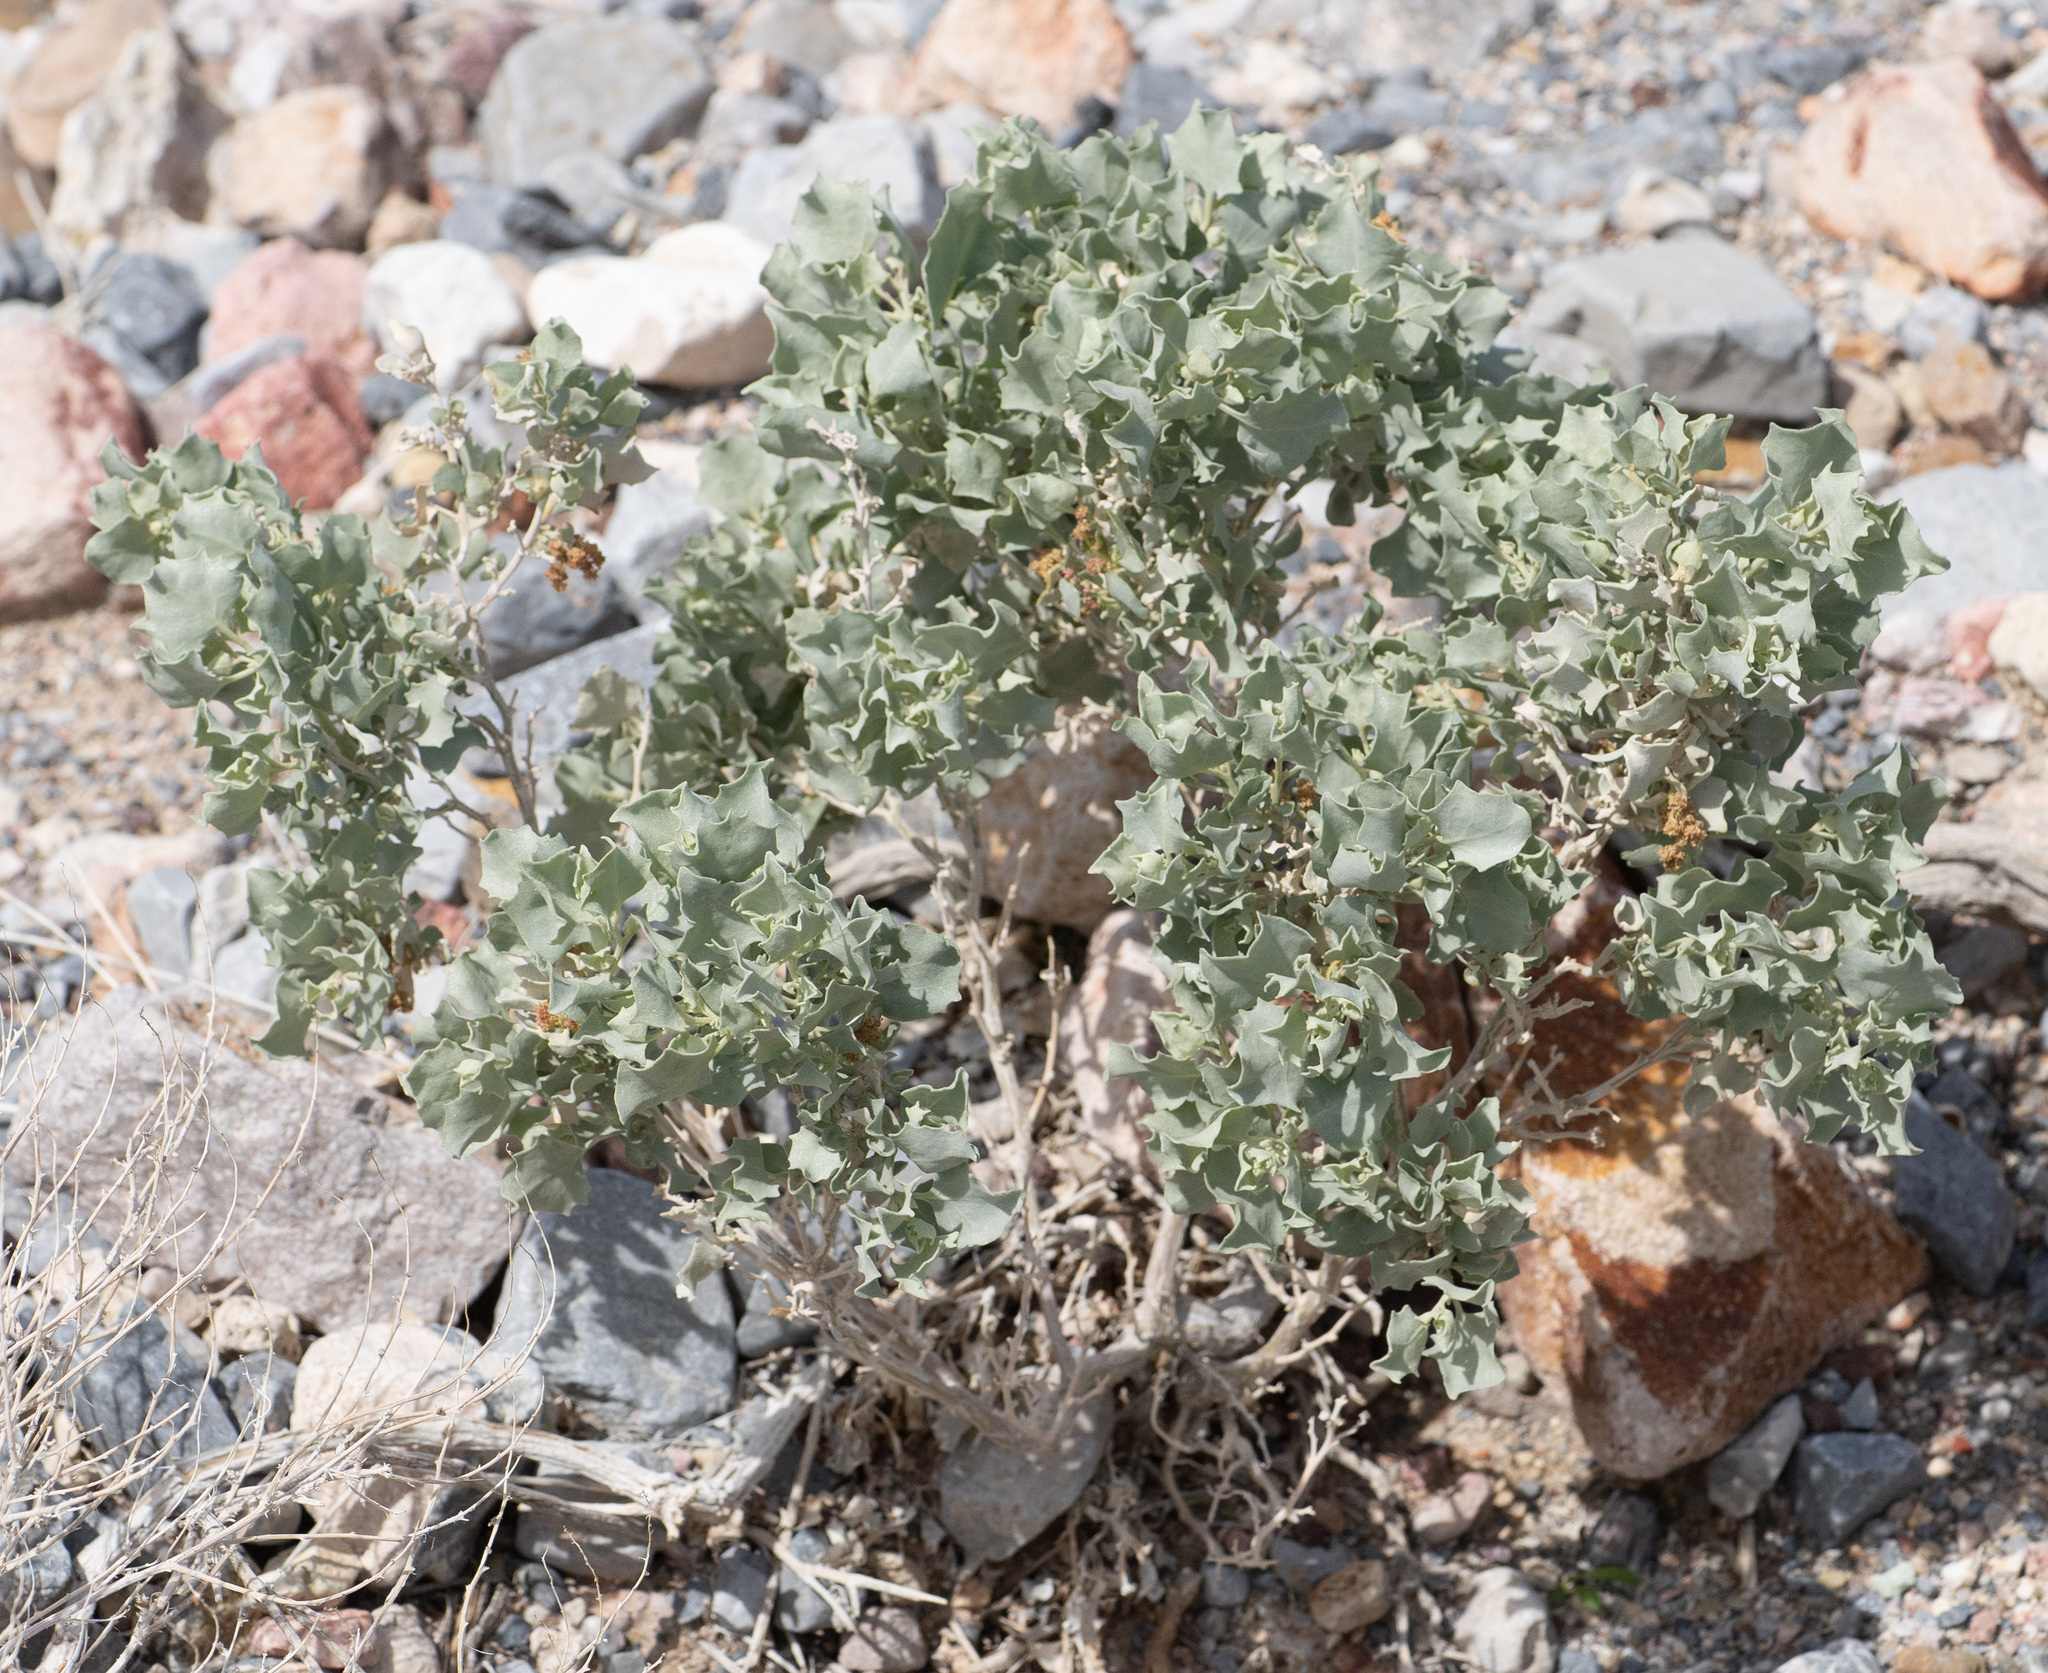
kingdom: Plantae
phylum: Tracheophyta
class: Magnoliopsida
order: Caryophyllales
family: Amaranthaceae
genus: Atriplex
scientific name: Atriplex hymenelytra
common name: Desert-holly
